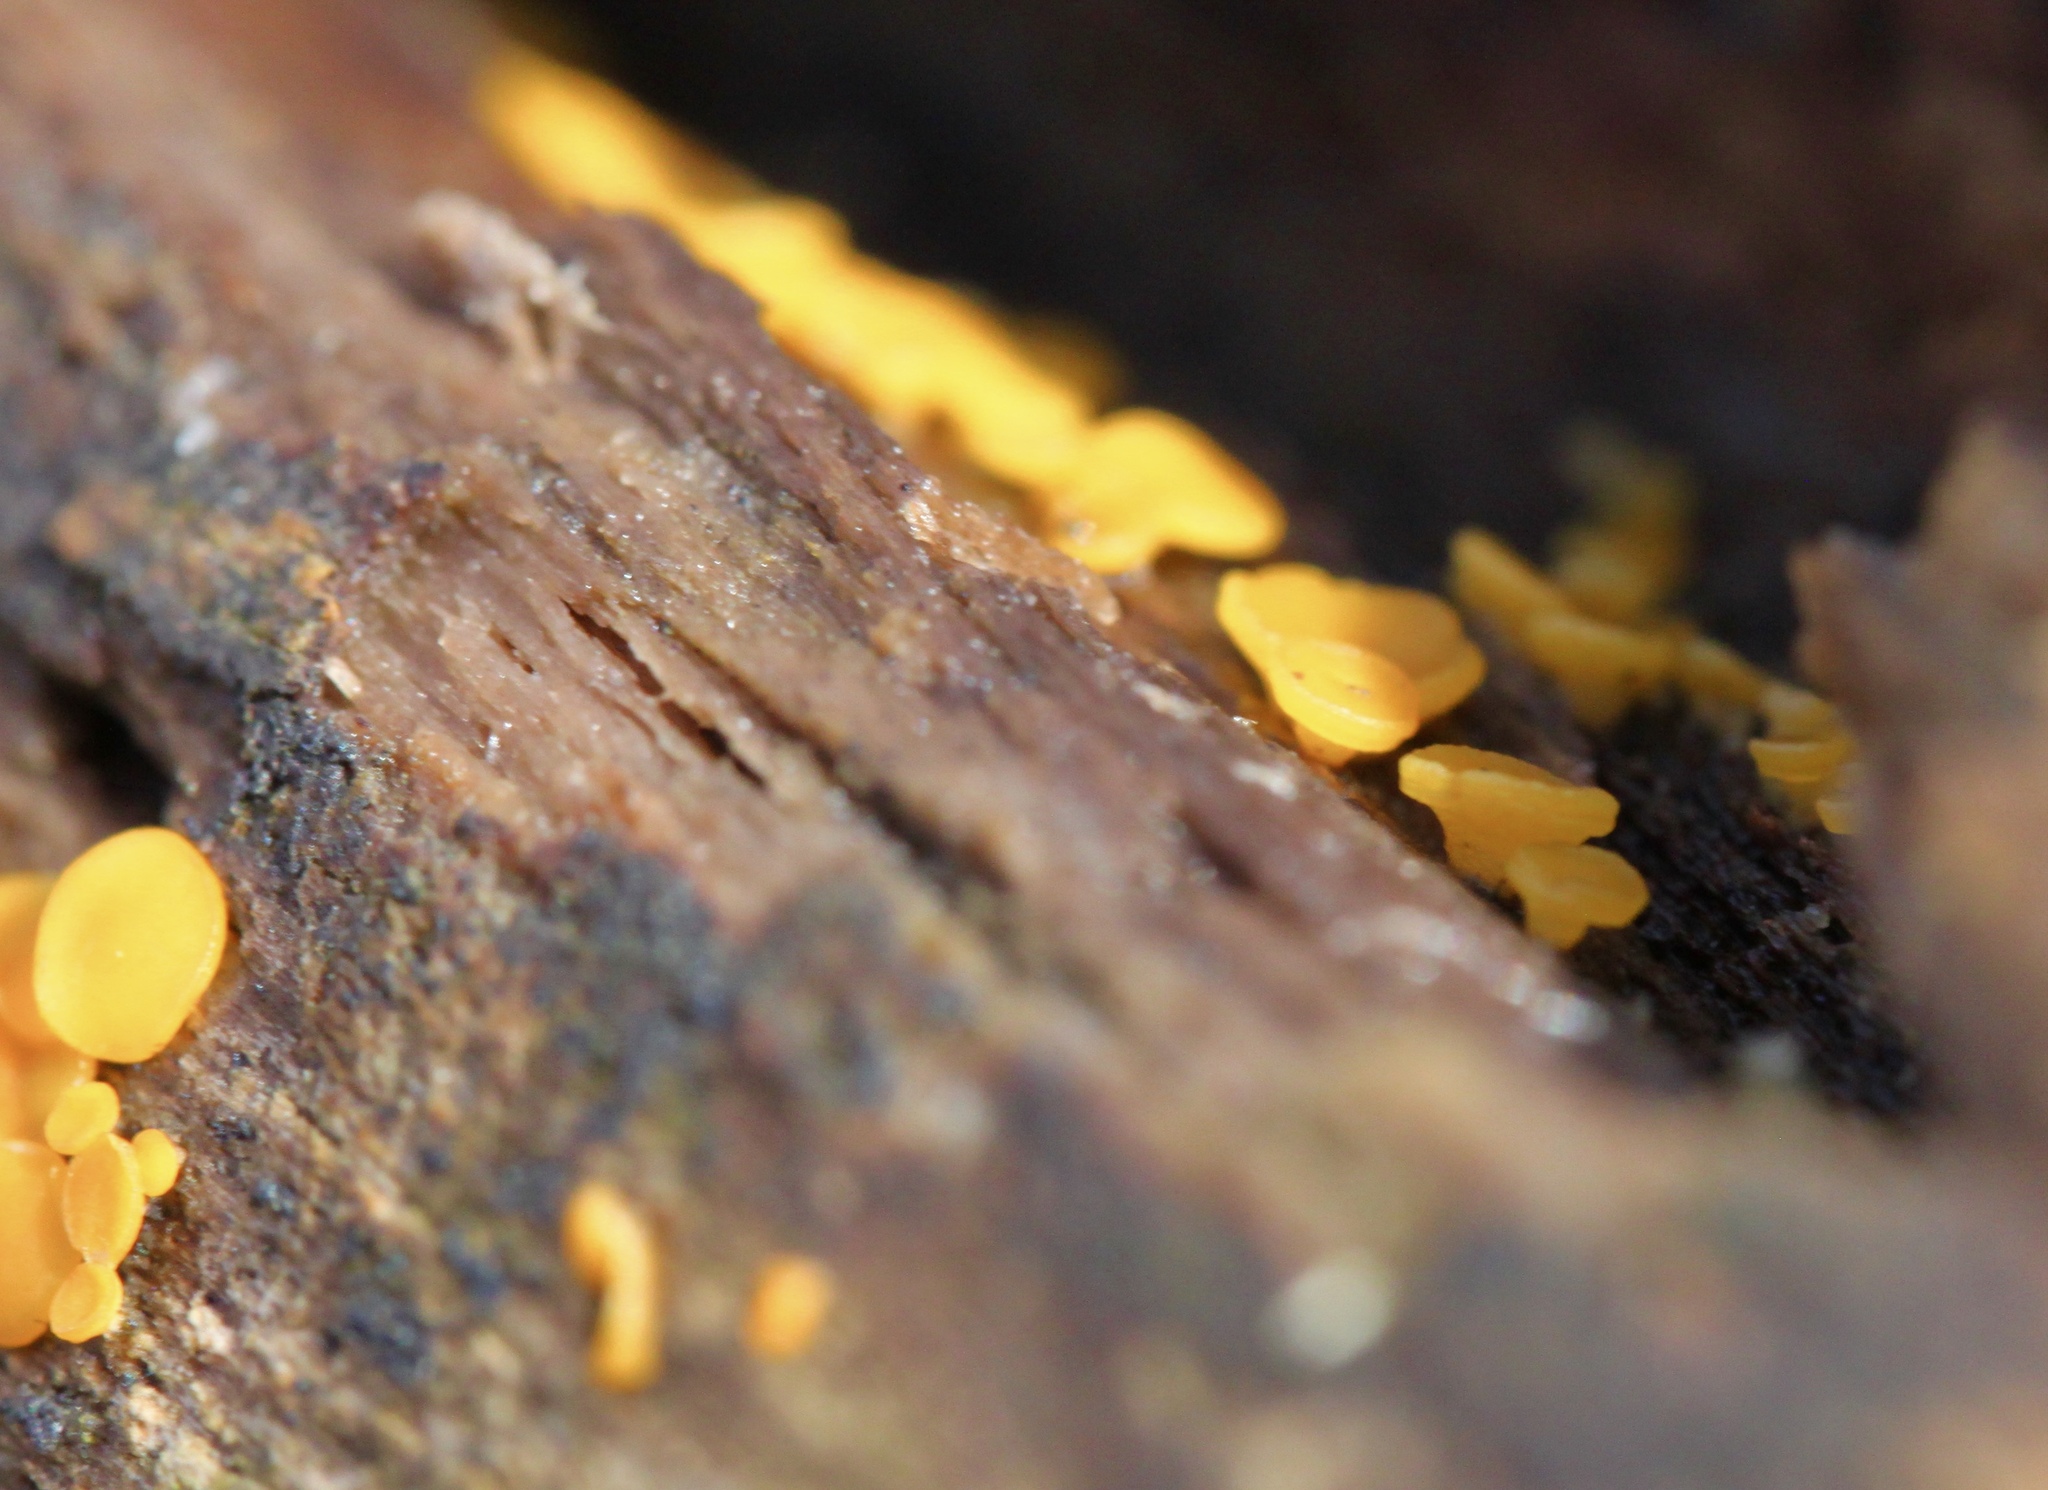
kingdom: Fungi
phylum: Ascomycota
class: Leotiomycetes
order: Helotiales
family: Pezizellaceae
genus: Calycina
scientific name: Calycina citrina
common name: Yellow fairy cups
